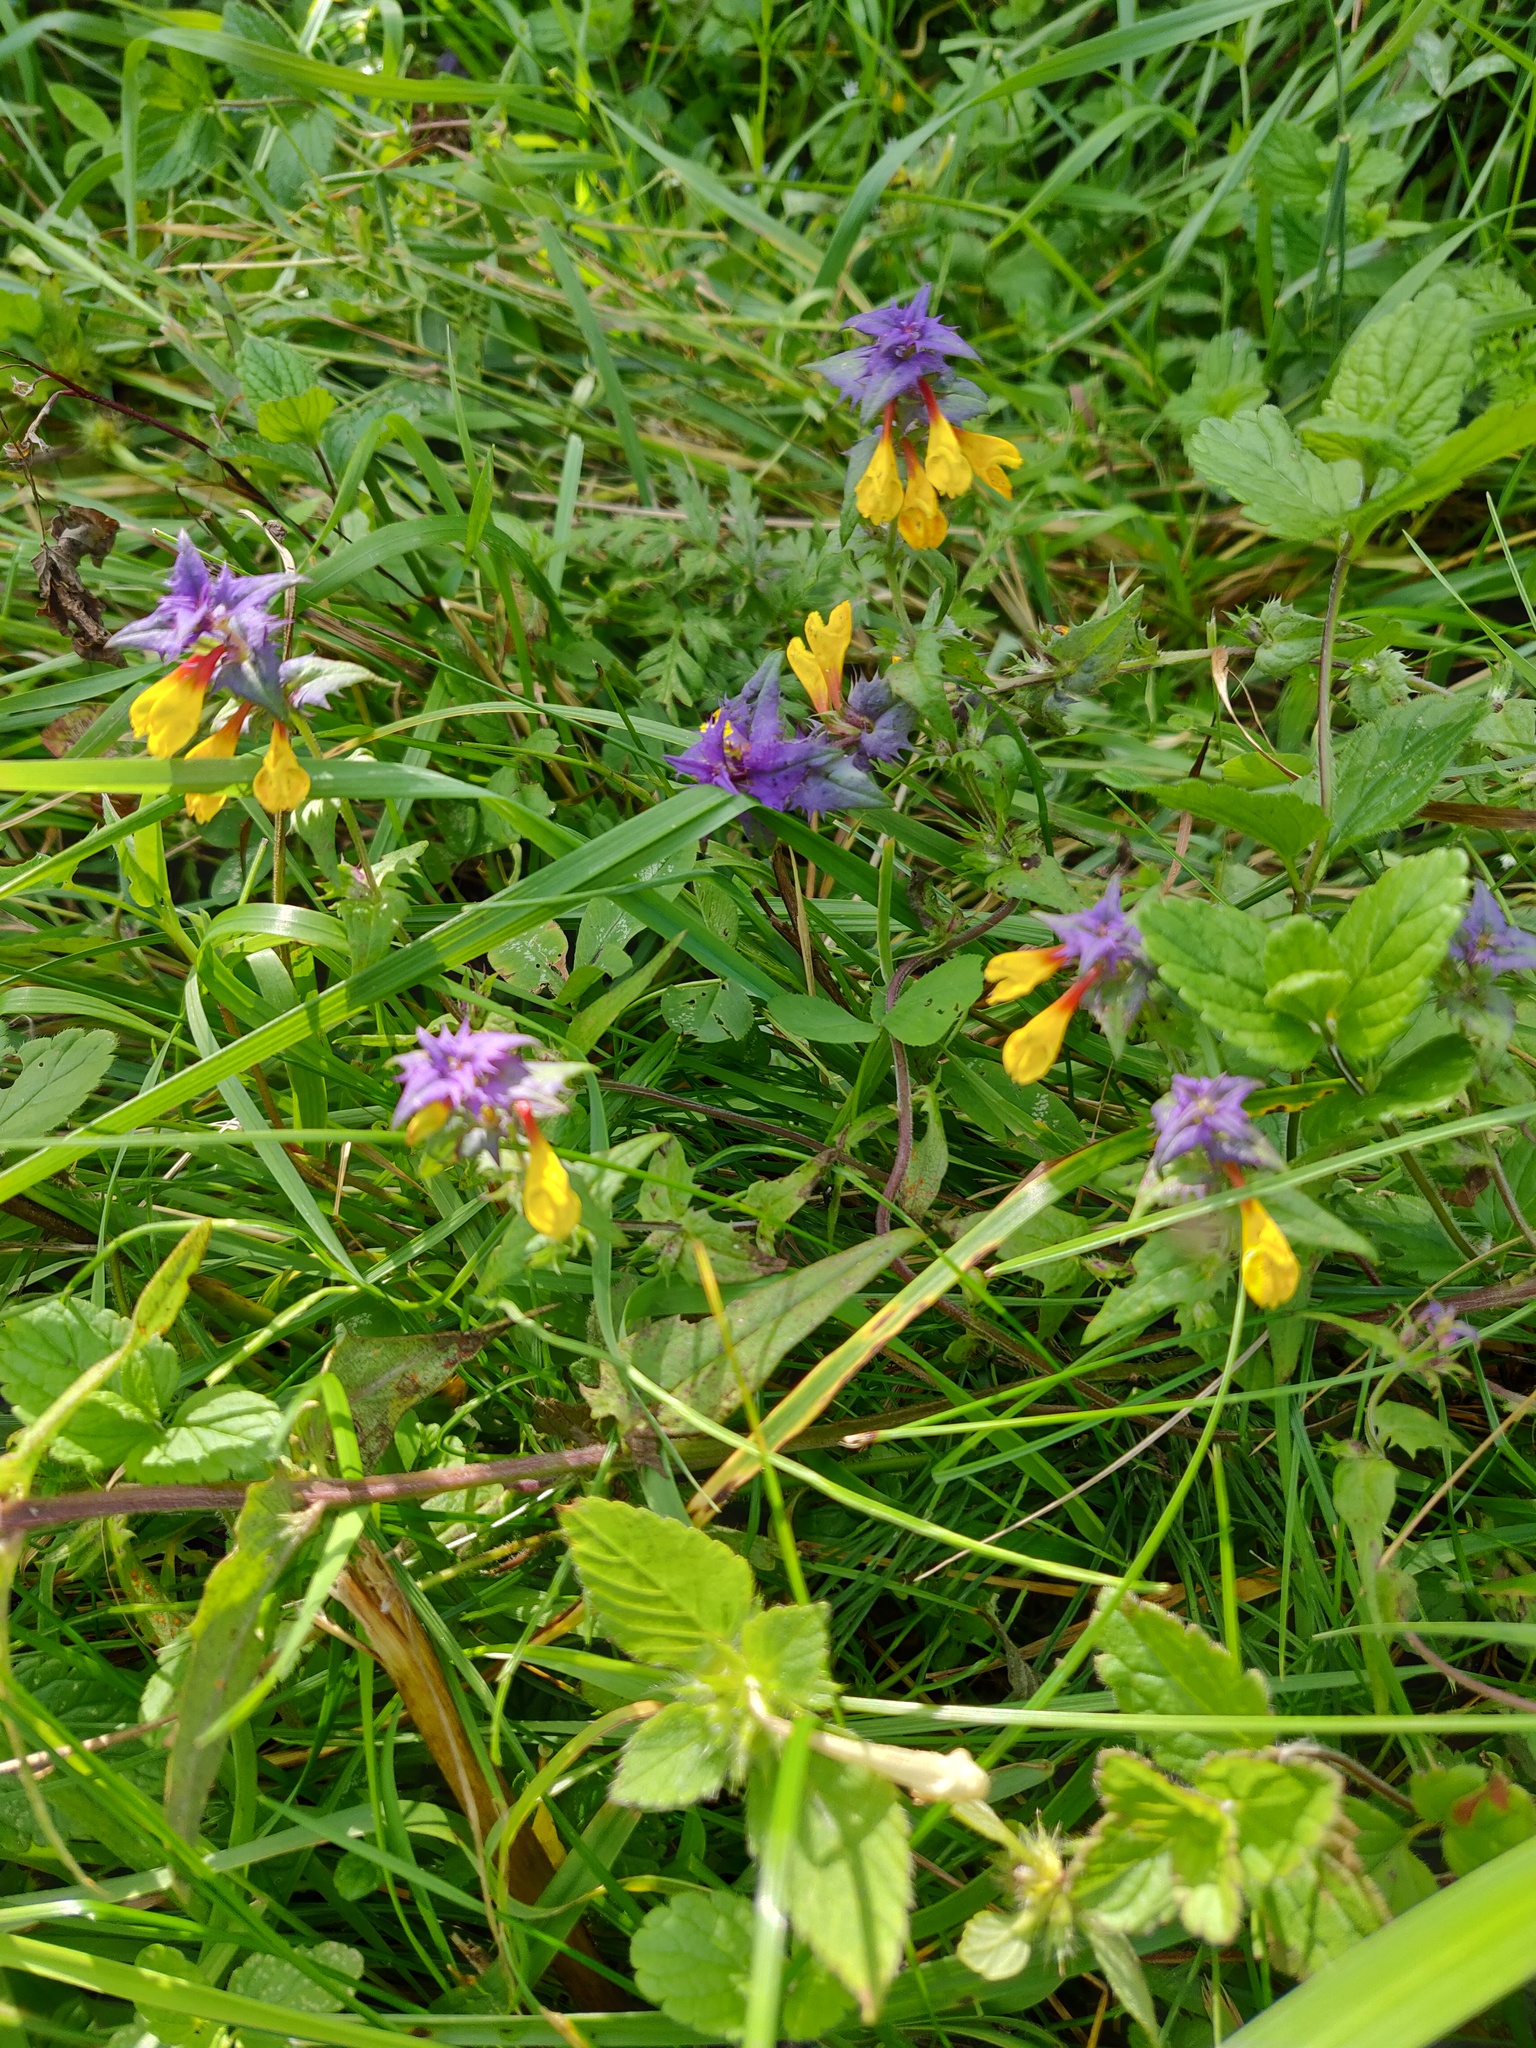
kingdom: Plantae
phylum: Tracheophyta
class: Magnoliopsida
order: Lamiales
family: Orobanchaceae
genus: Melampyrum
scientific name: Melampyrum nemorosum
